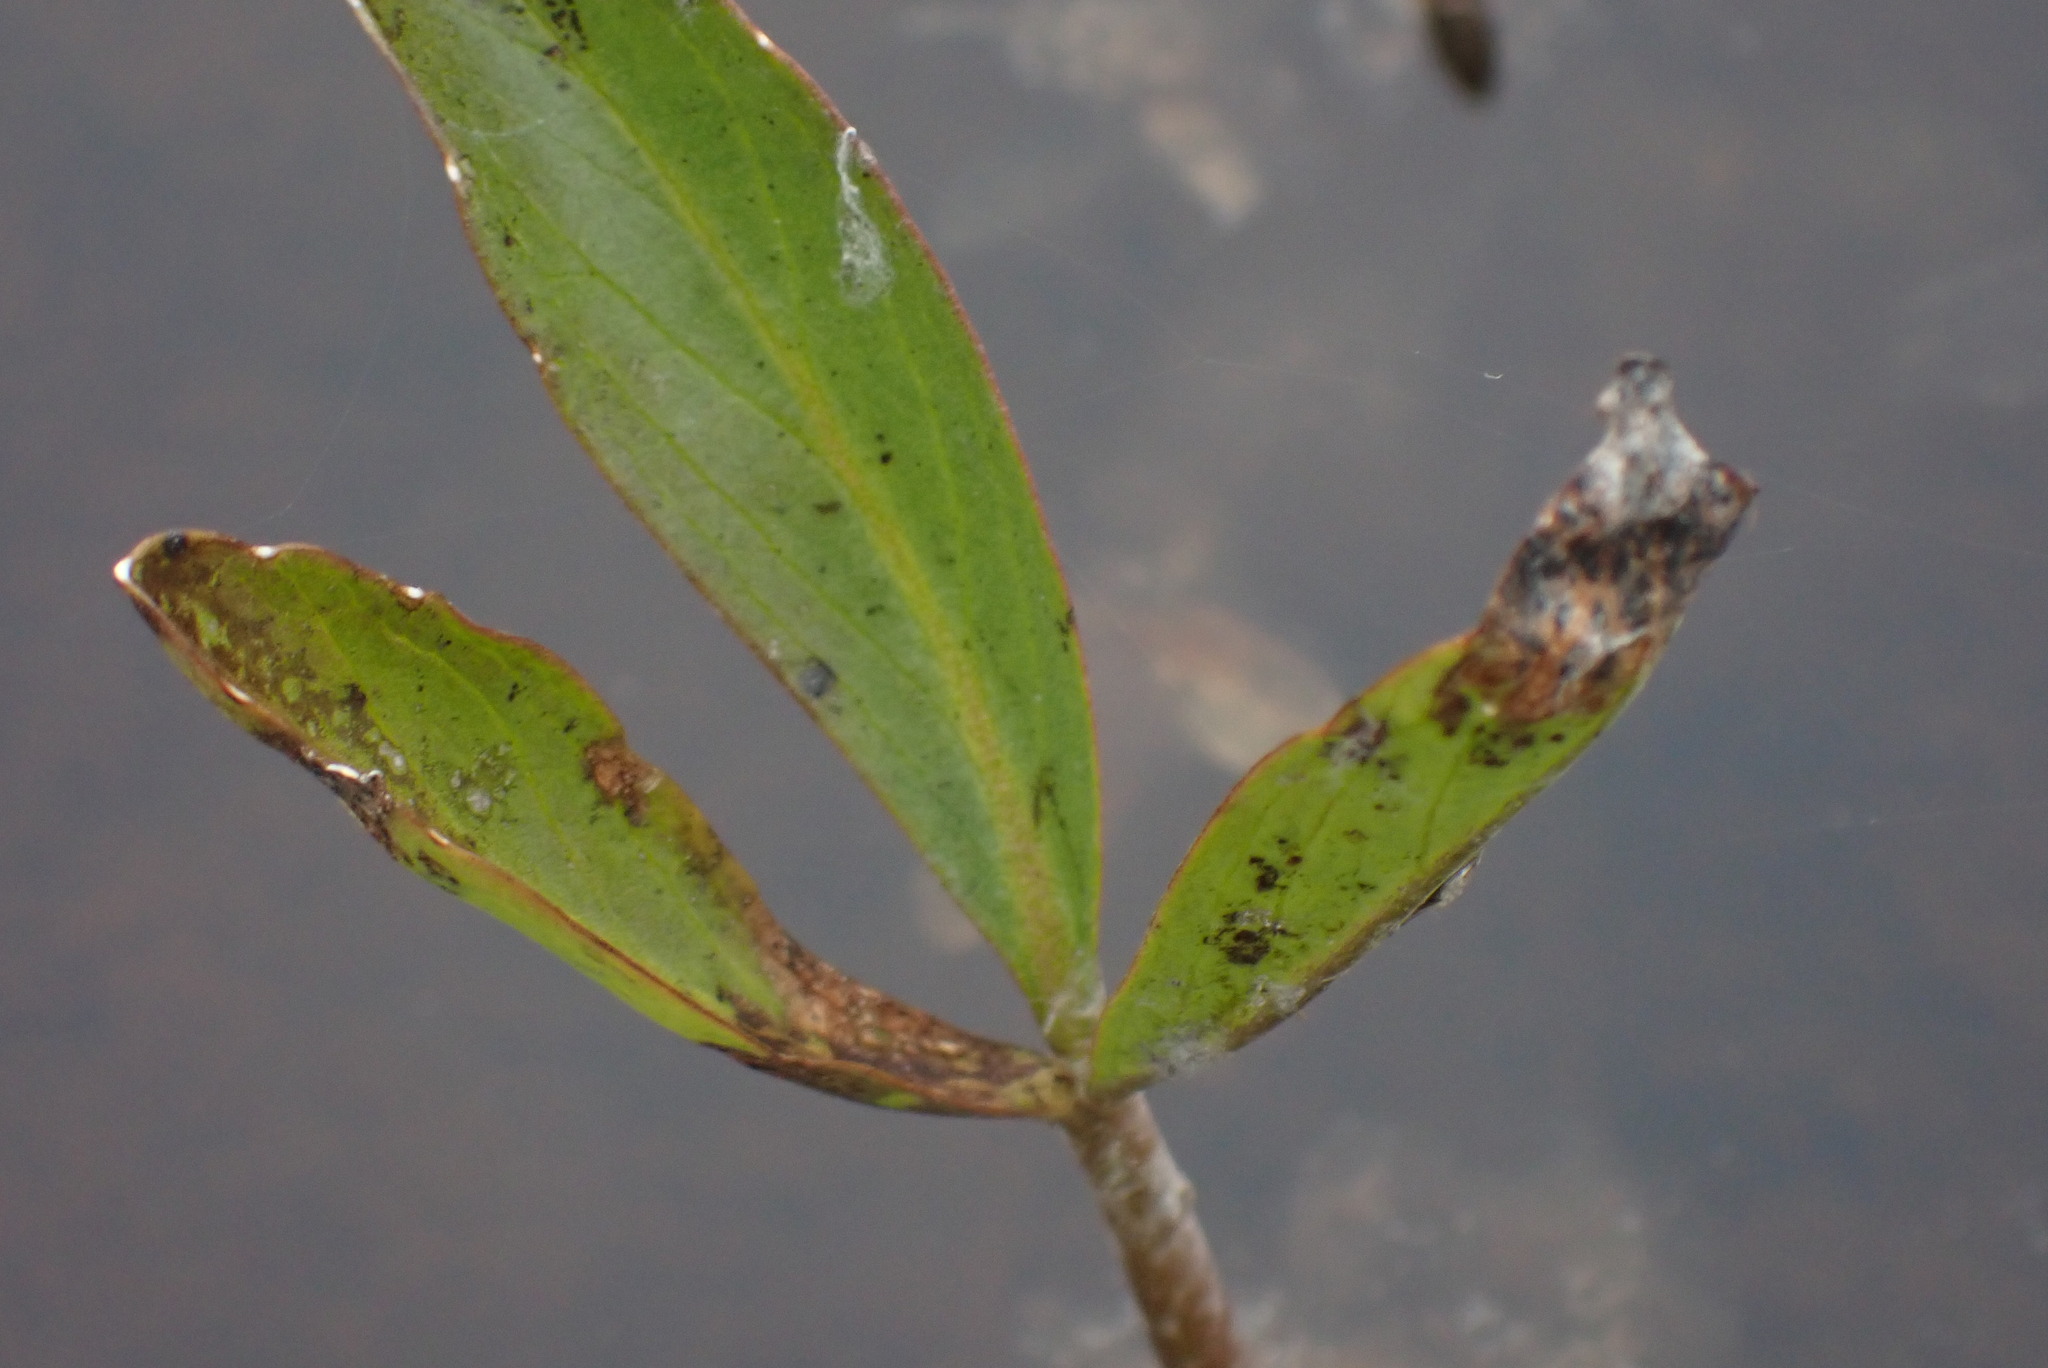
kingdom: Plantae
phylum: Tracheophyta
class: Magnoliopsida
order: Asterales
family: Menyanthaceae
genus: Menyanthes
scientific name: Menyanthes trifoliata
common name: Bogbean
